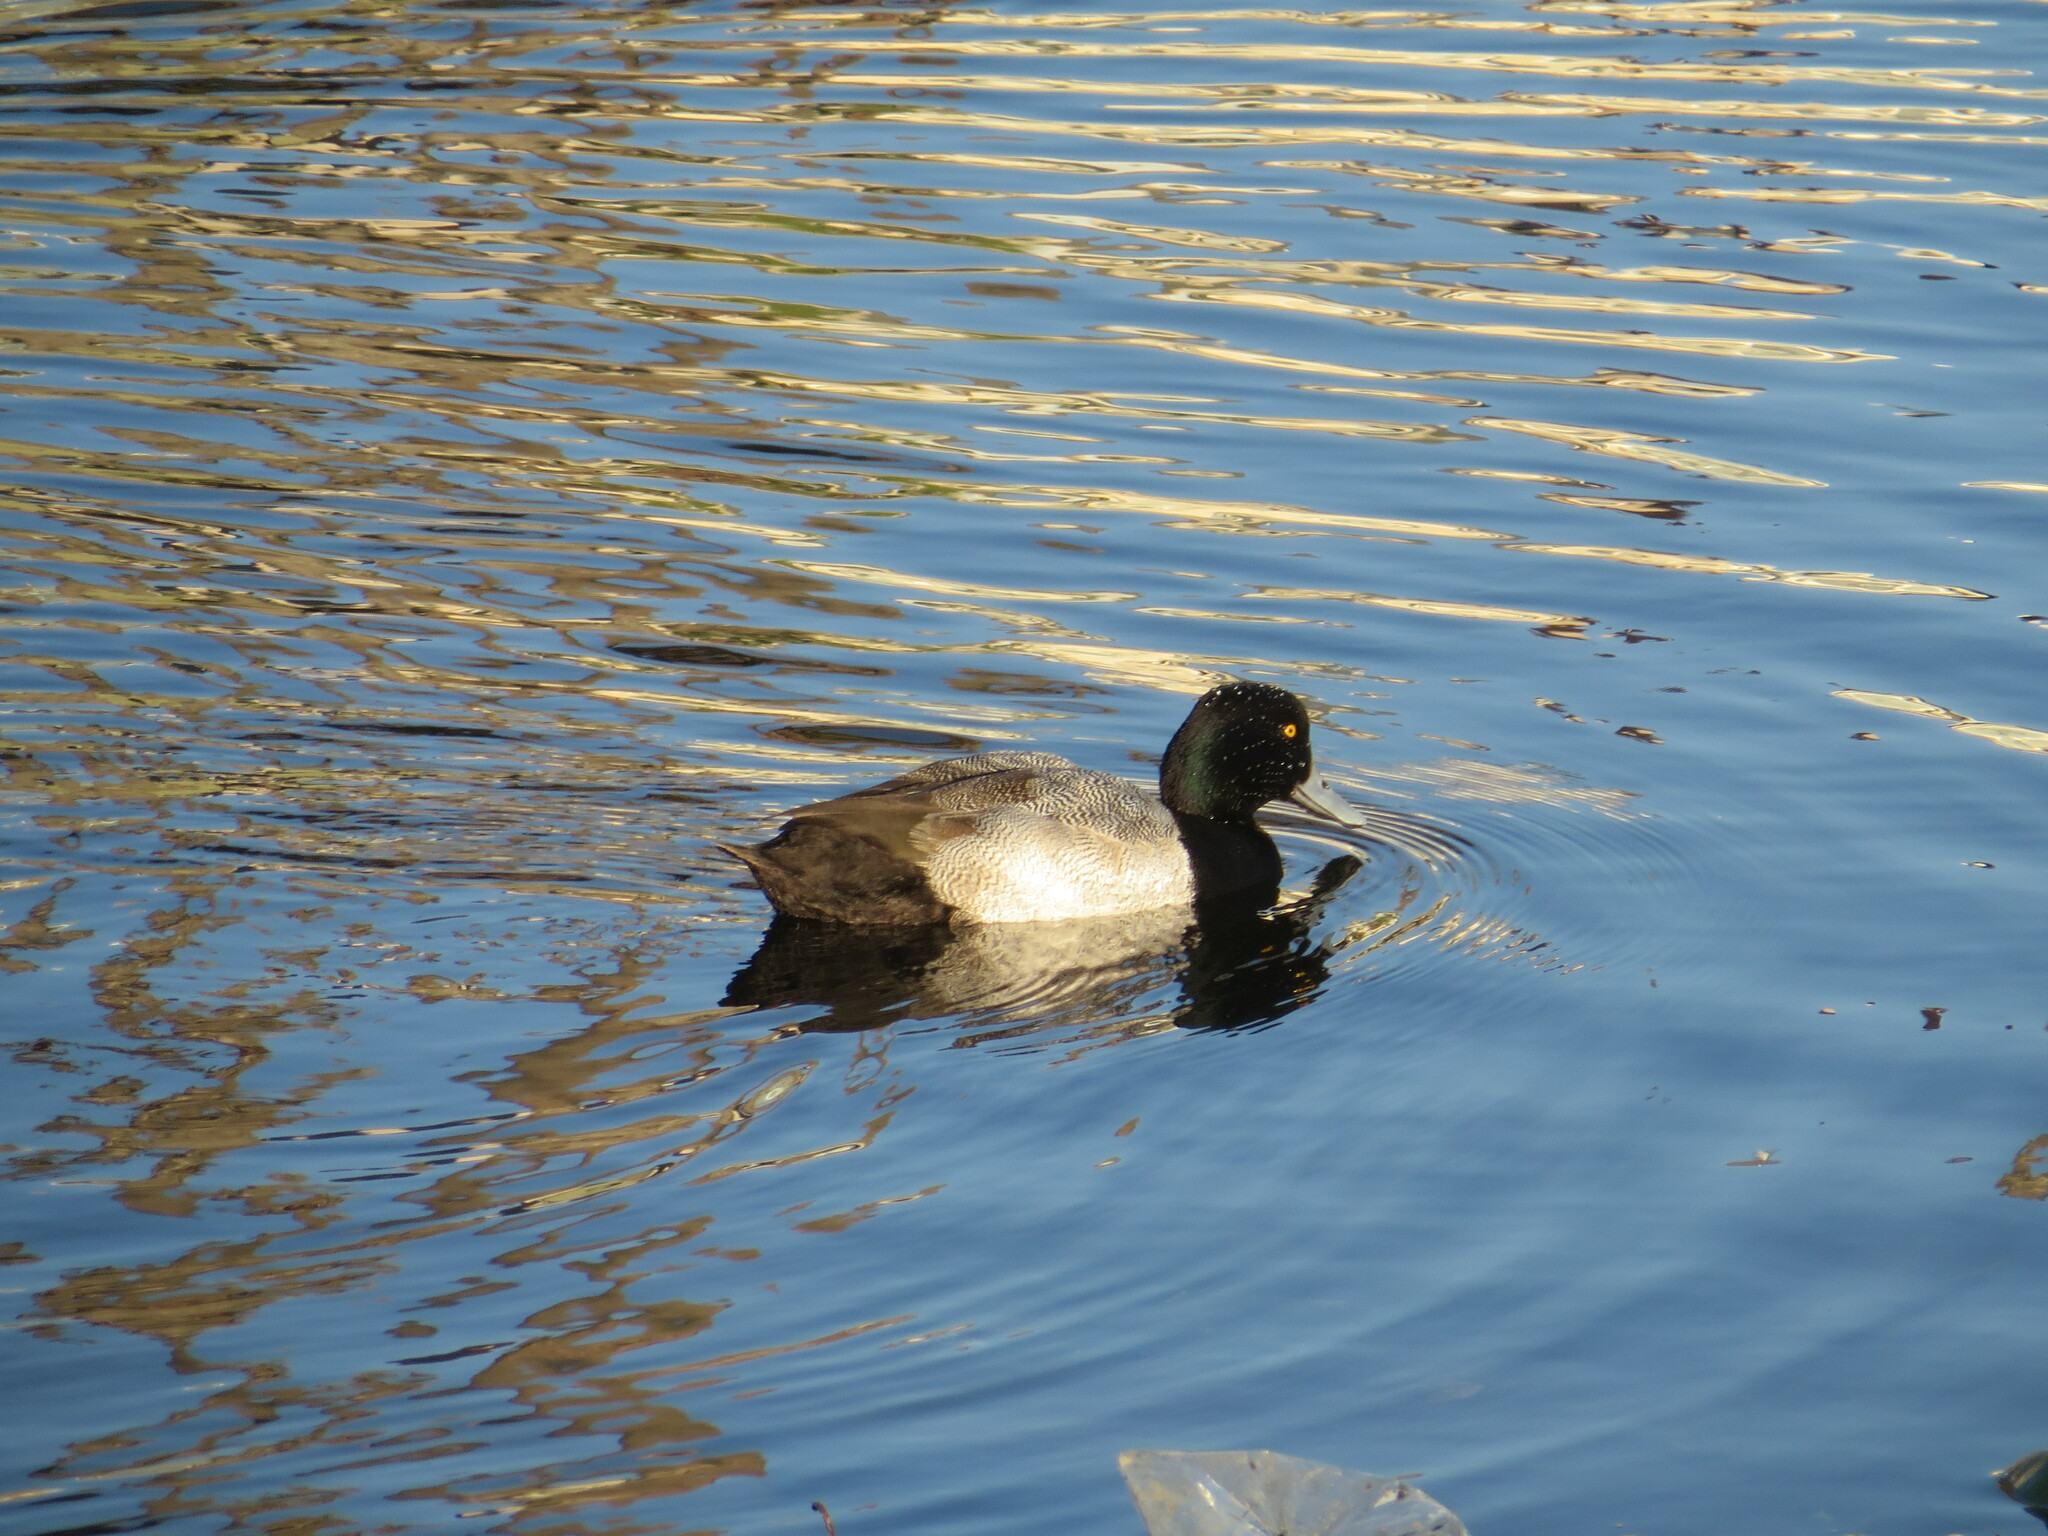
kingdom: Animalia
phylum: Chordata
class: Aves
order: Anseriformes
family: Anatidae
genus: Aythya
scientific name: Aythya marila
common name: Greater scaup
